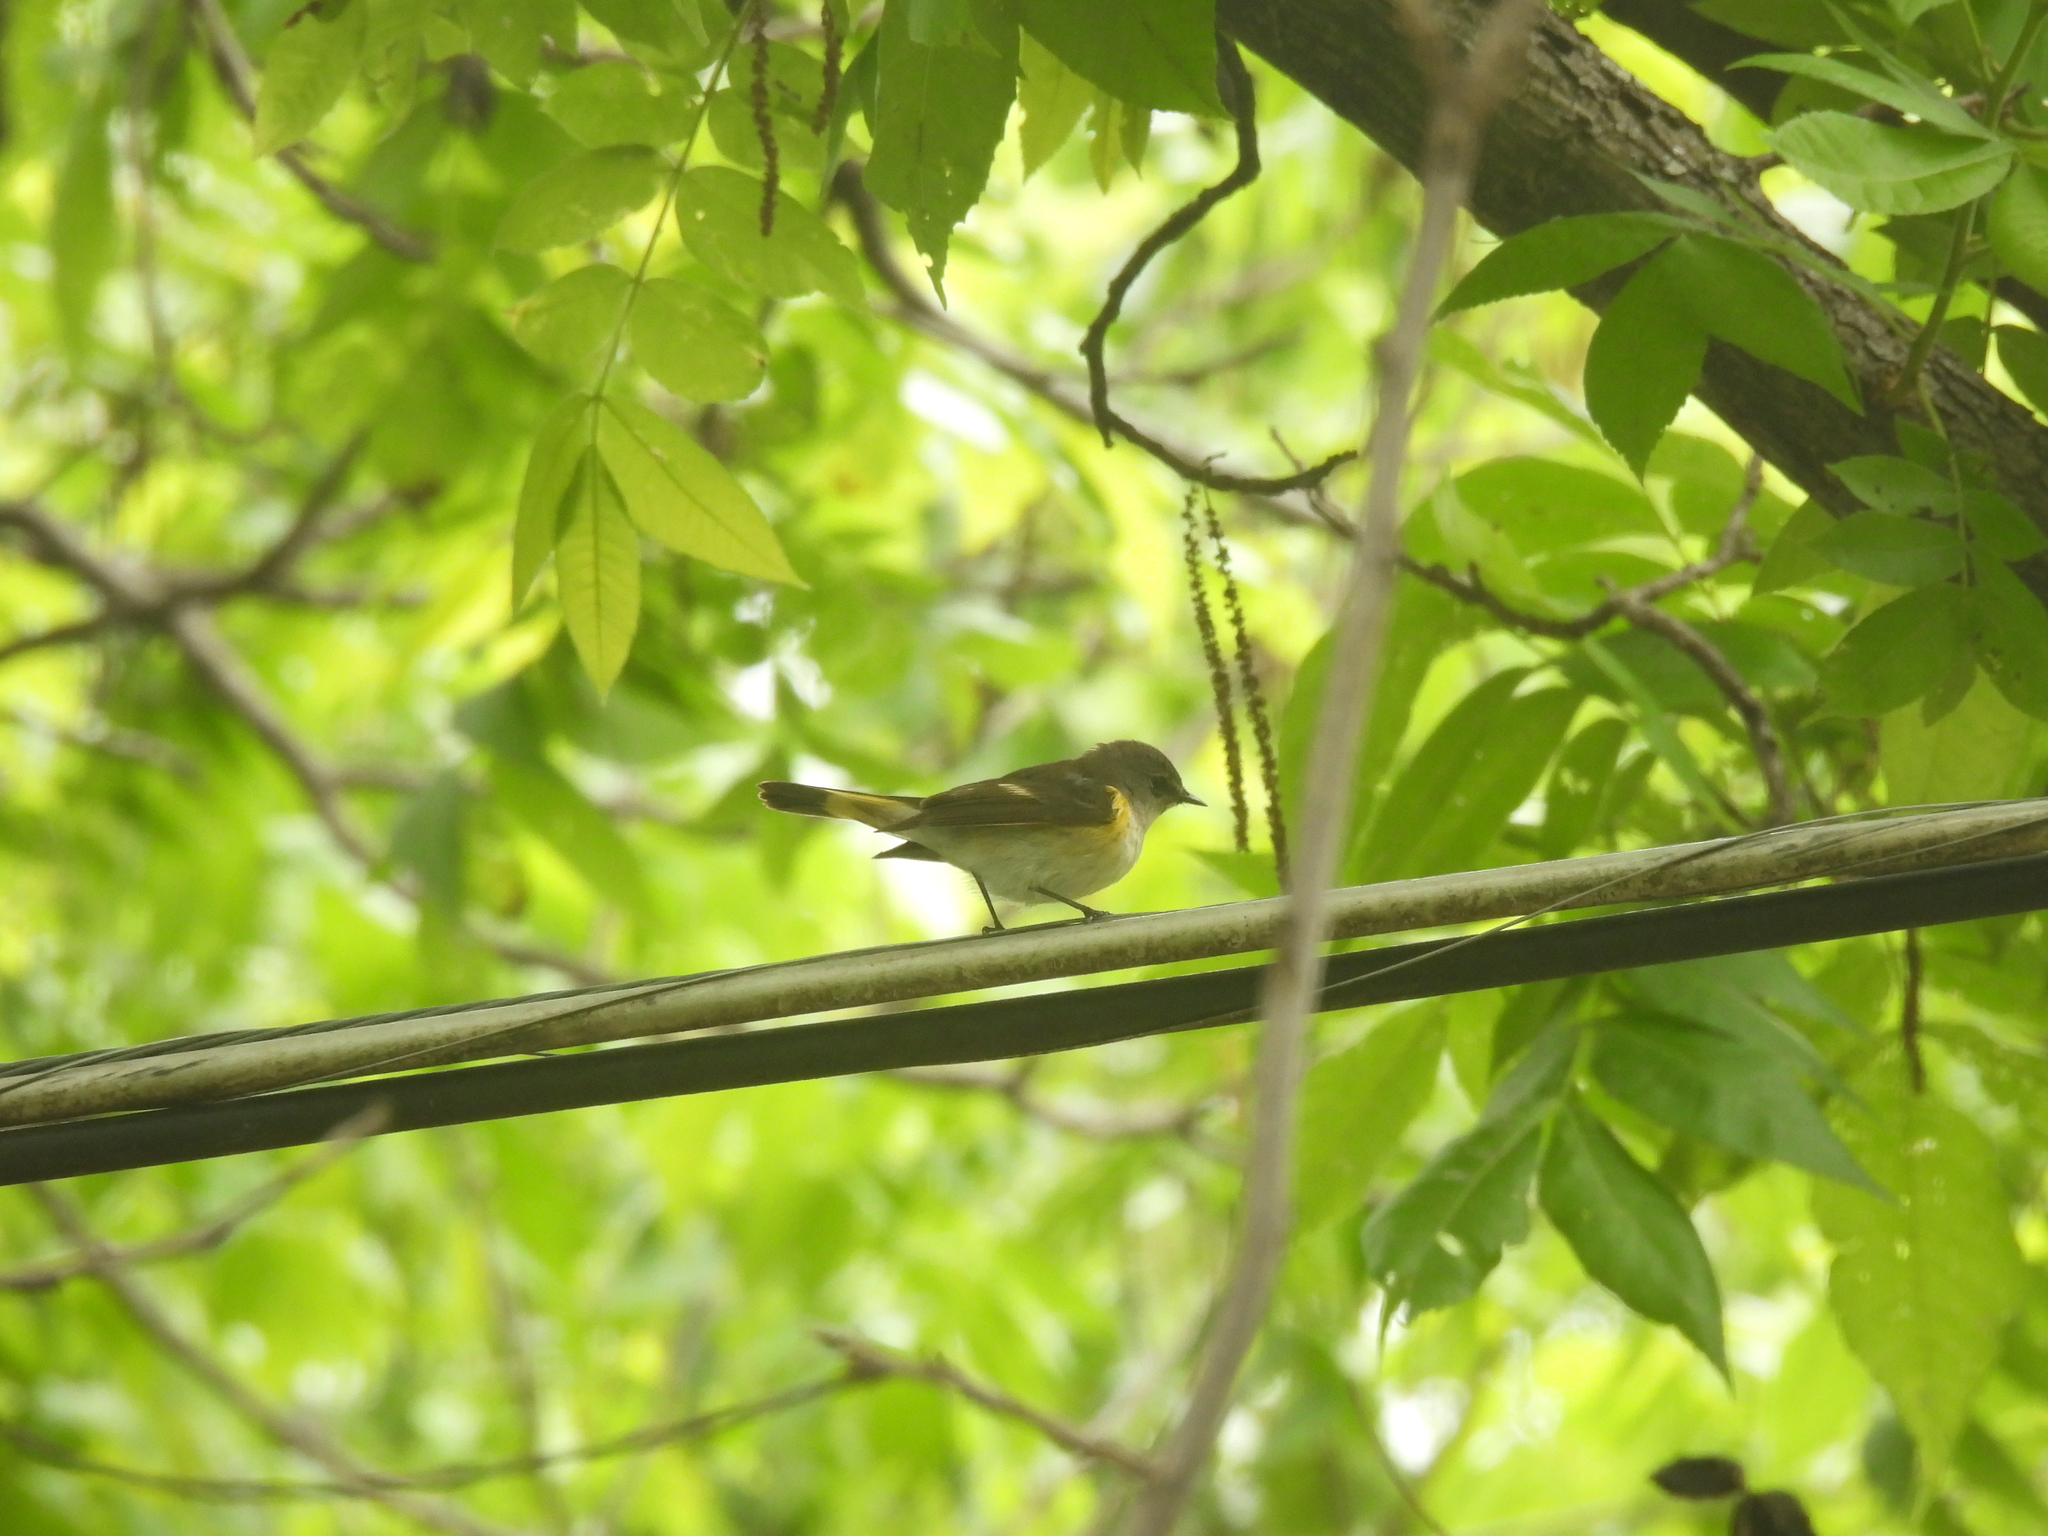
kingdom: Animalia
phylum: Chordata
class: Aves
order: Passeriformes
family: Parulidae
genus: Setophaga
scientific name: Setophaga ruticilla
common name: American redstart
